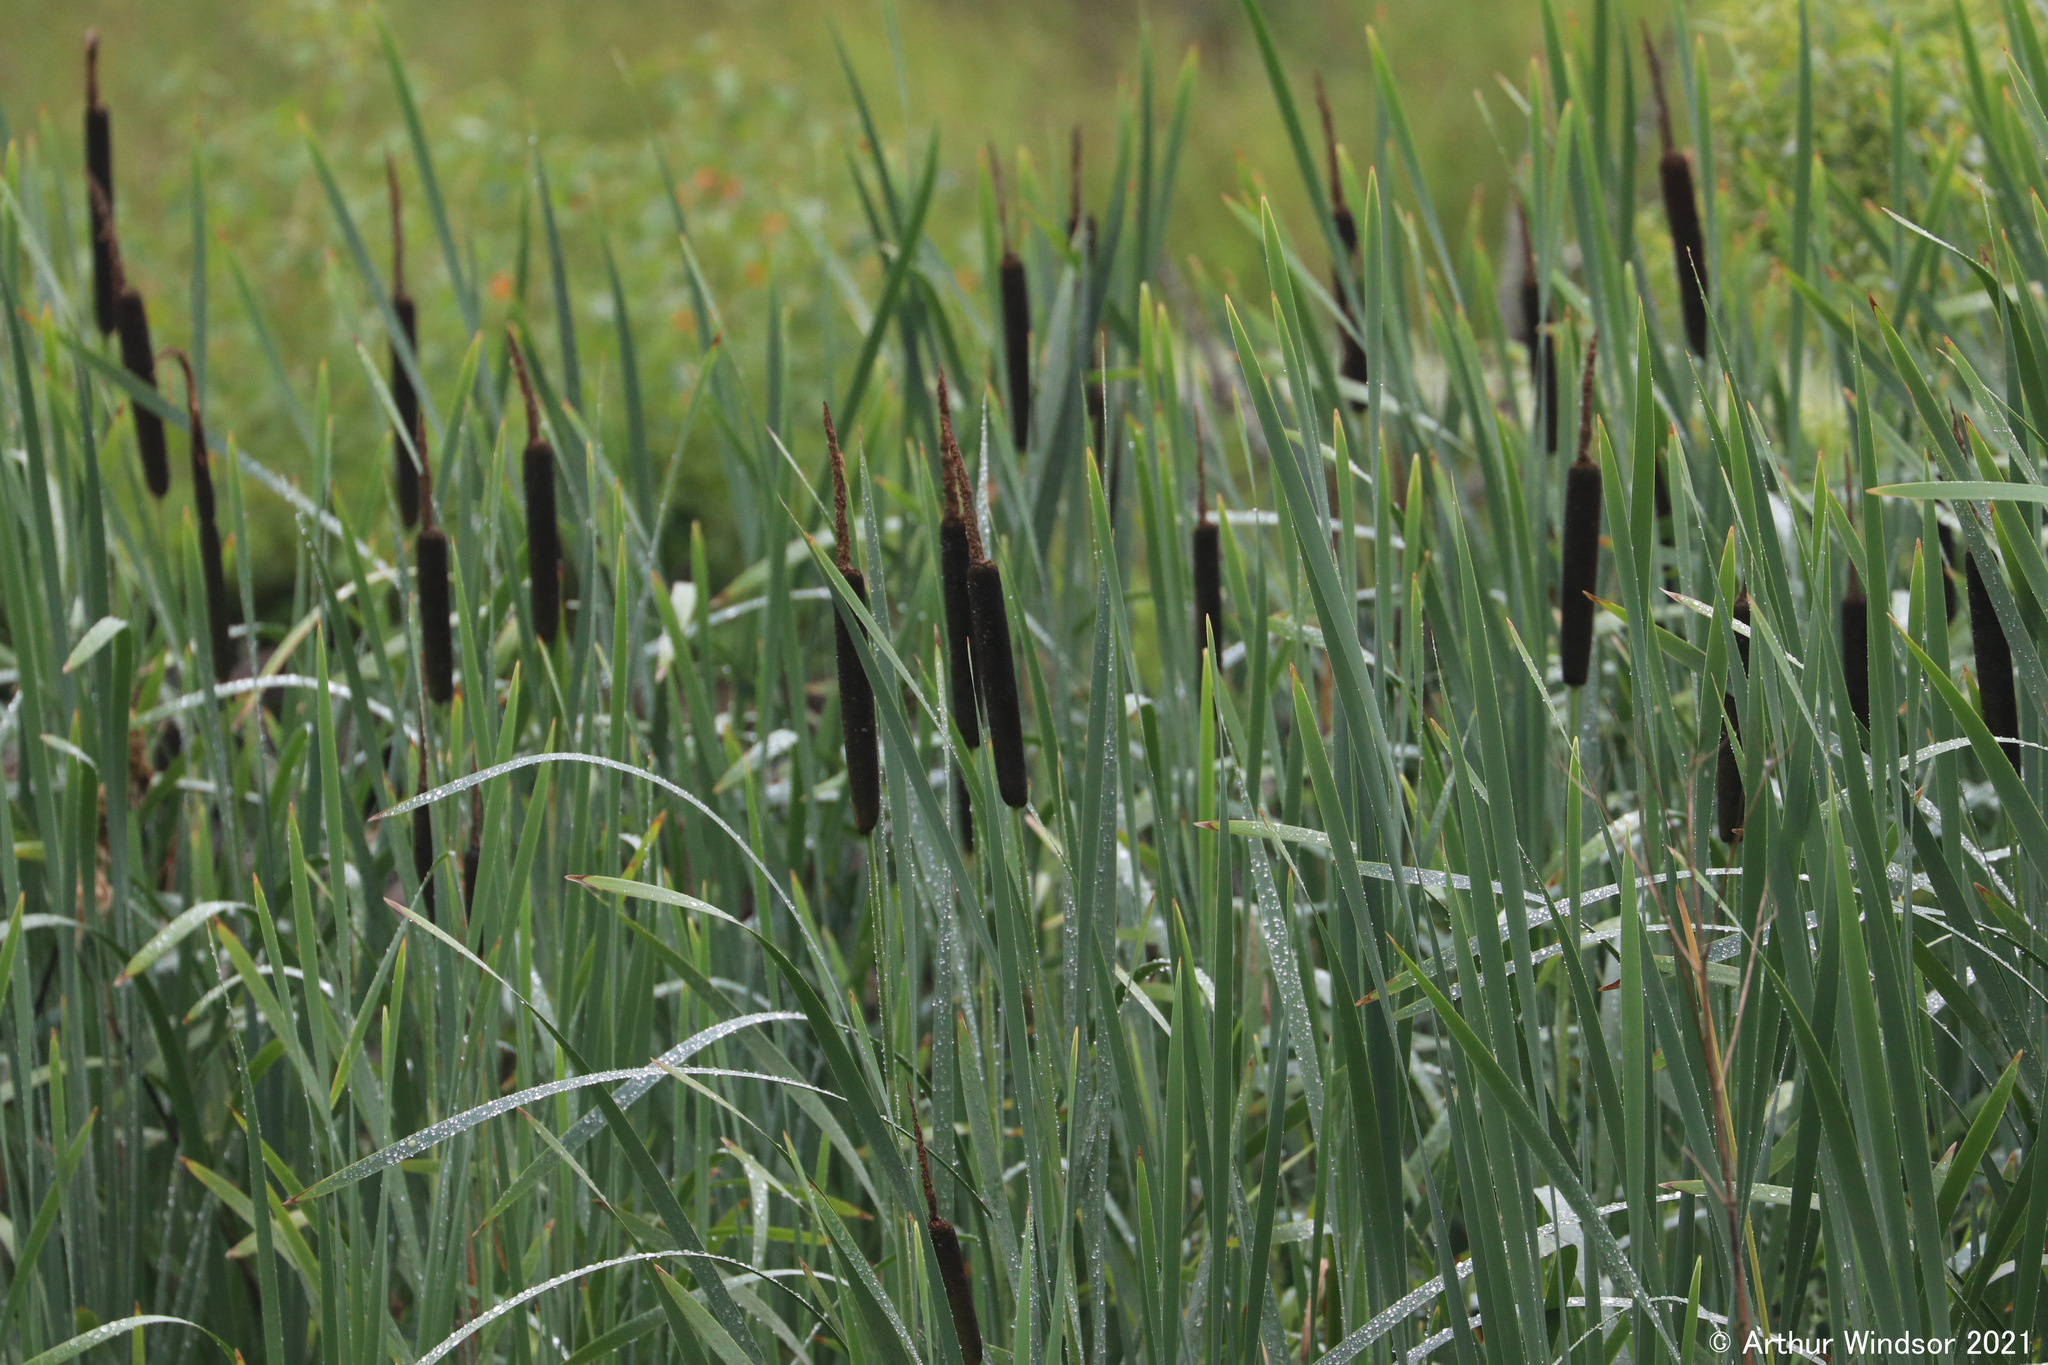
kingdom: Plantae
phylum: Tracheophyta
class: Liliopsida
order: Poales
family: Typhaceae
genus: Typha
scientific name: Typha latifolia
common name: Broadleaf cattail
